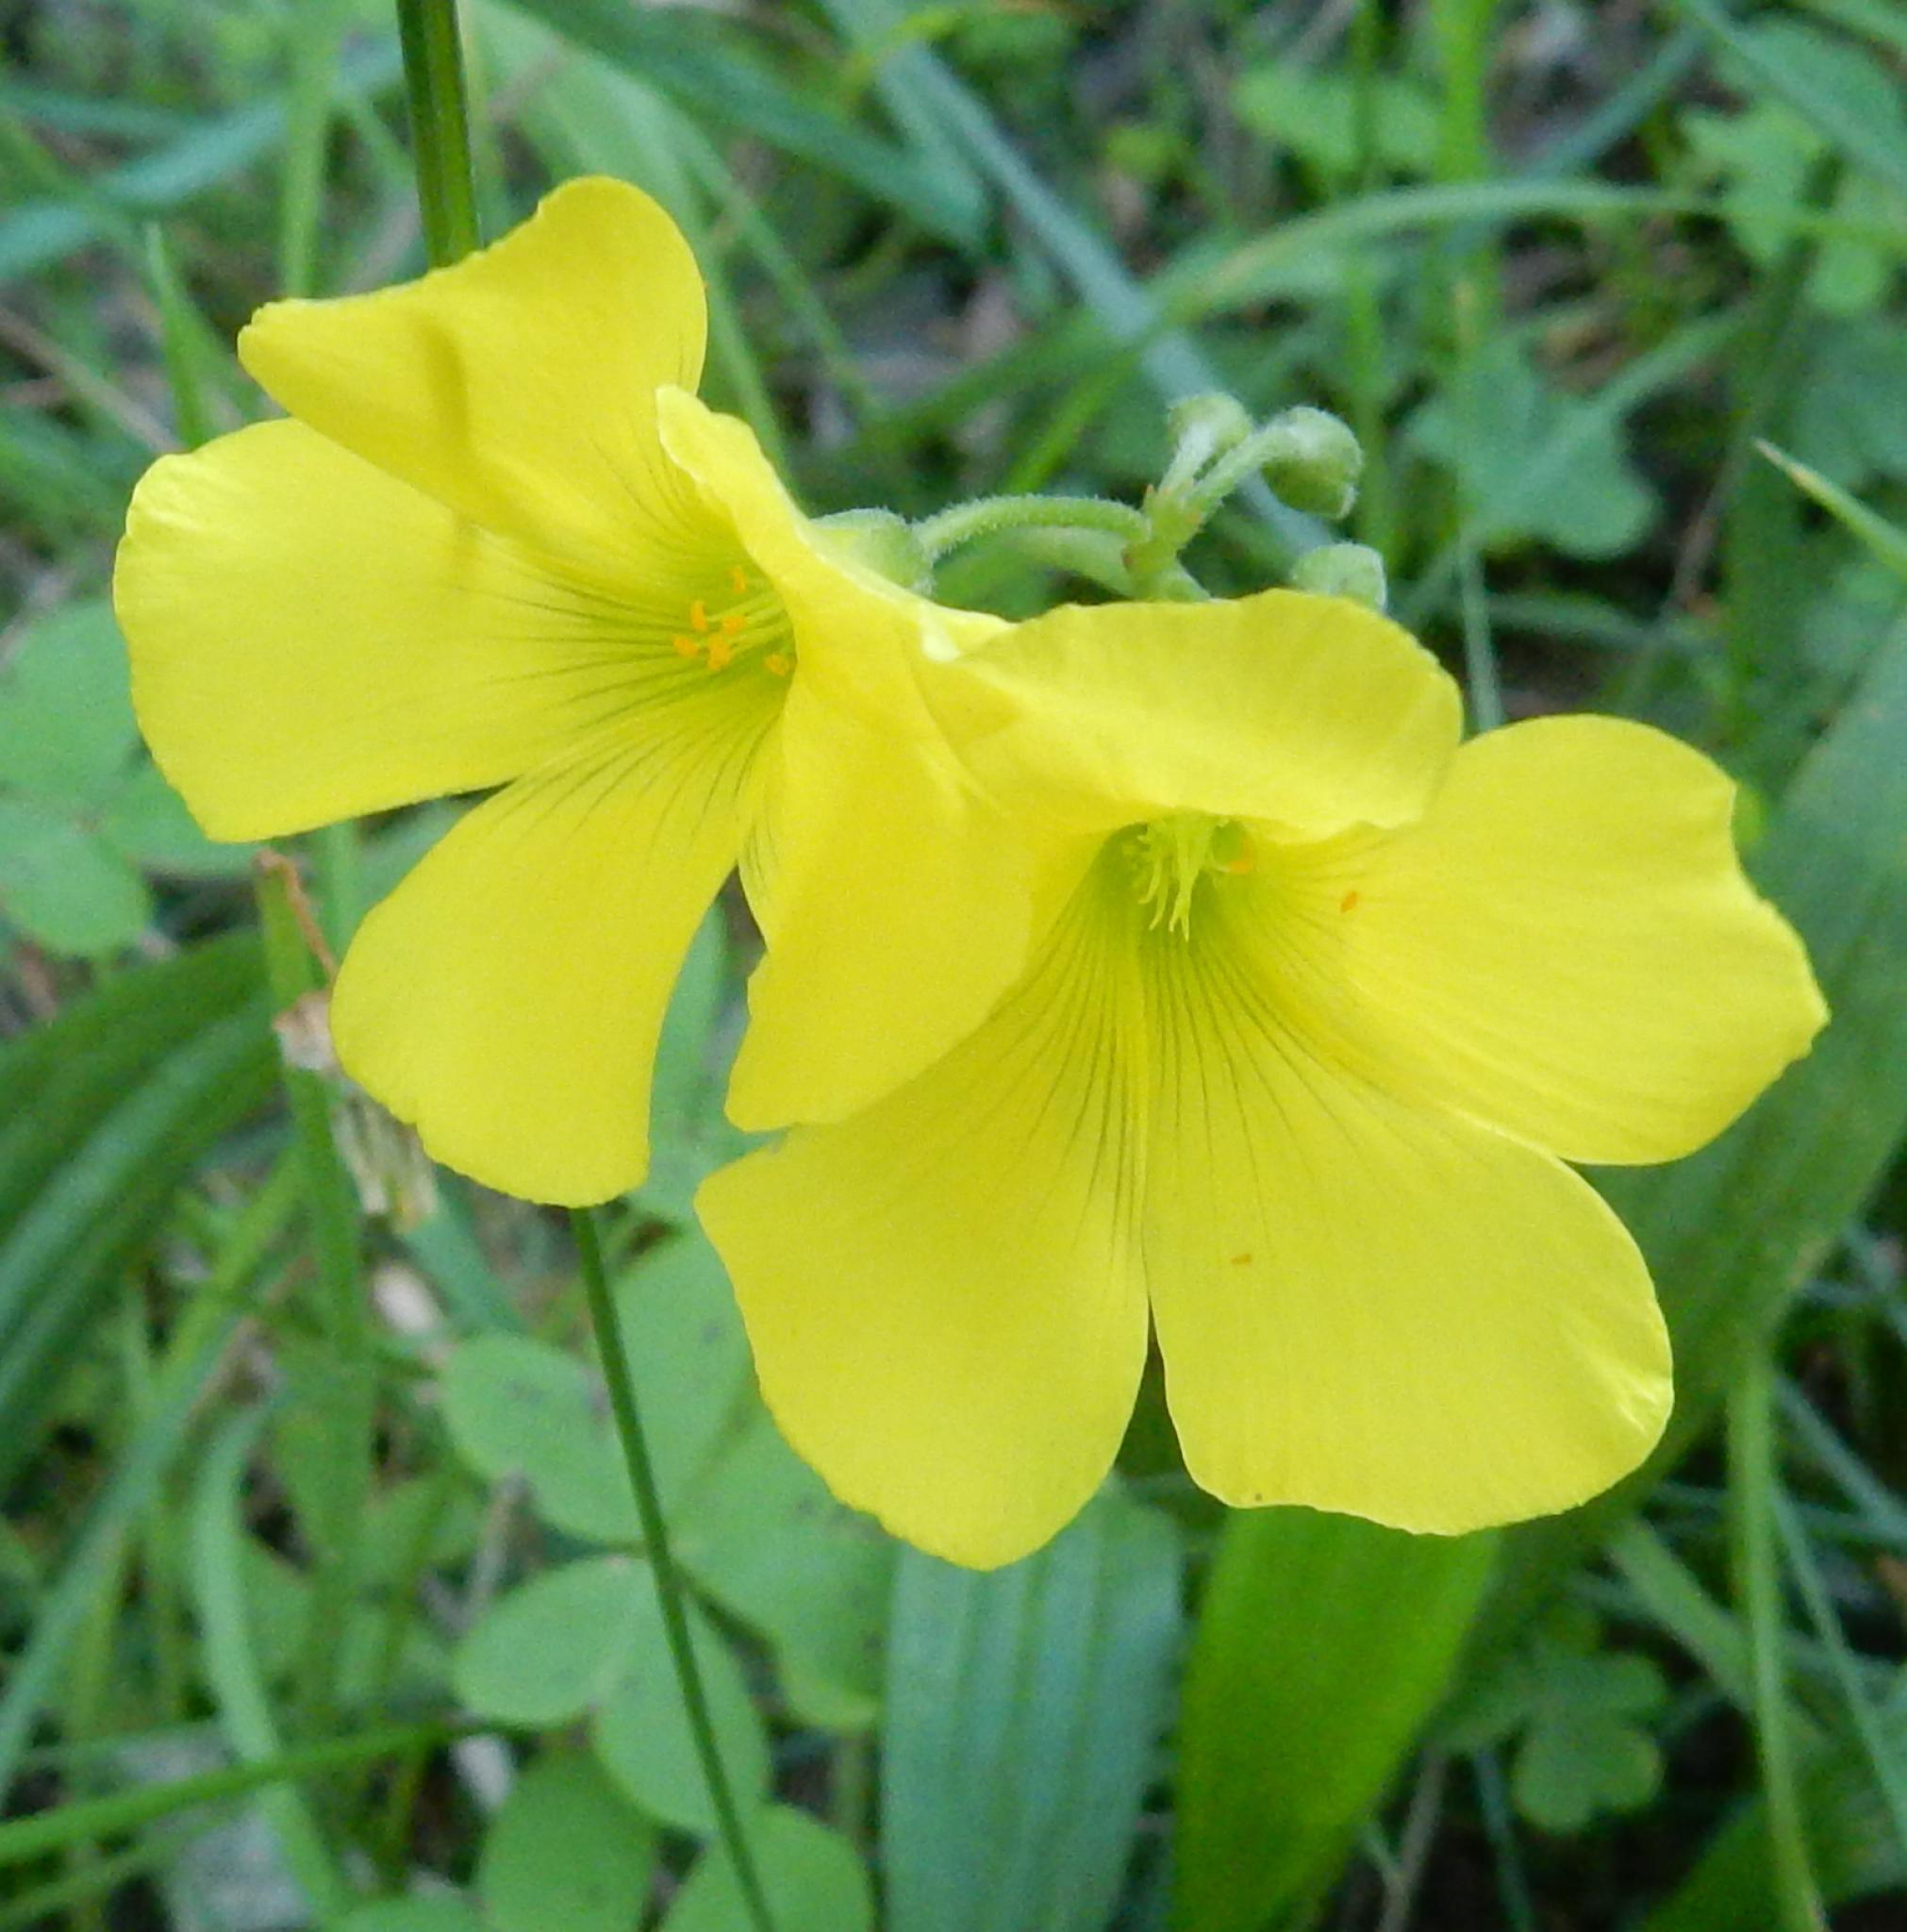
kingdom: Plantae
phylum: Tracheophyta
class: Magnoliopsida
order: Oxalidales
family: Oxalidaceae
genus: Oxalis
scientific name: Oxalis pes-caprae
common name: Bermuda-buttercup
